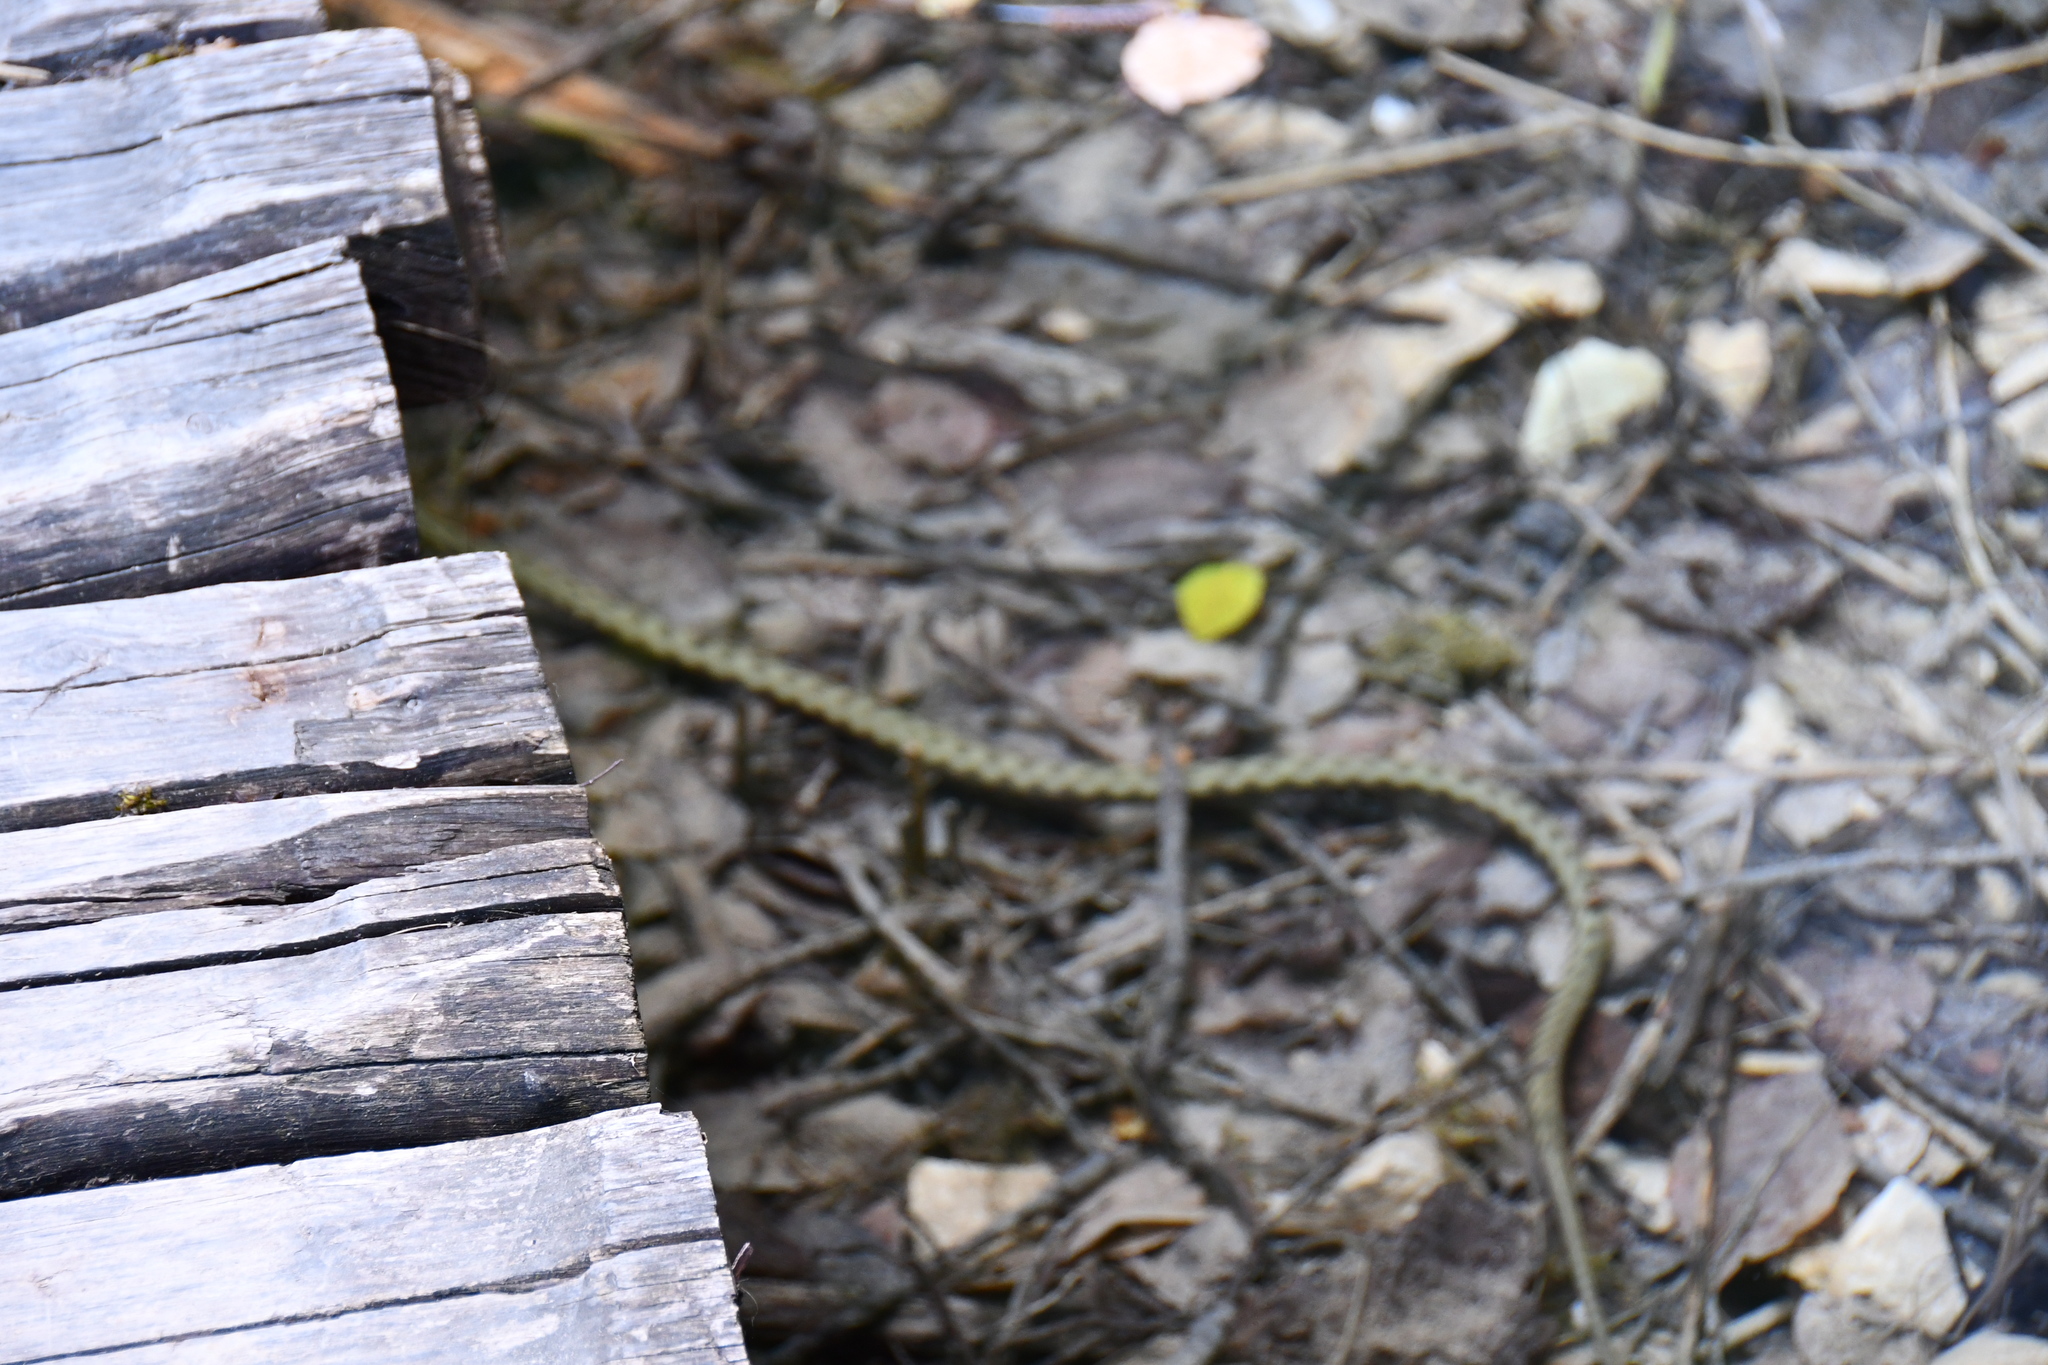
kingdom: Animalia
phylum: Chordata
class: Squamata
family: Colubridae
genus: Natrix
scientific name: Natrix tessellata
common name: Dice snake
